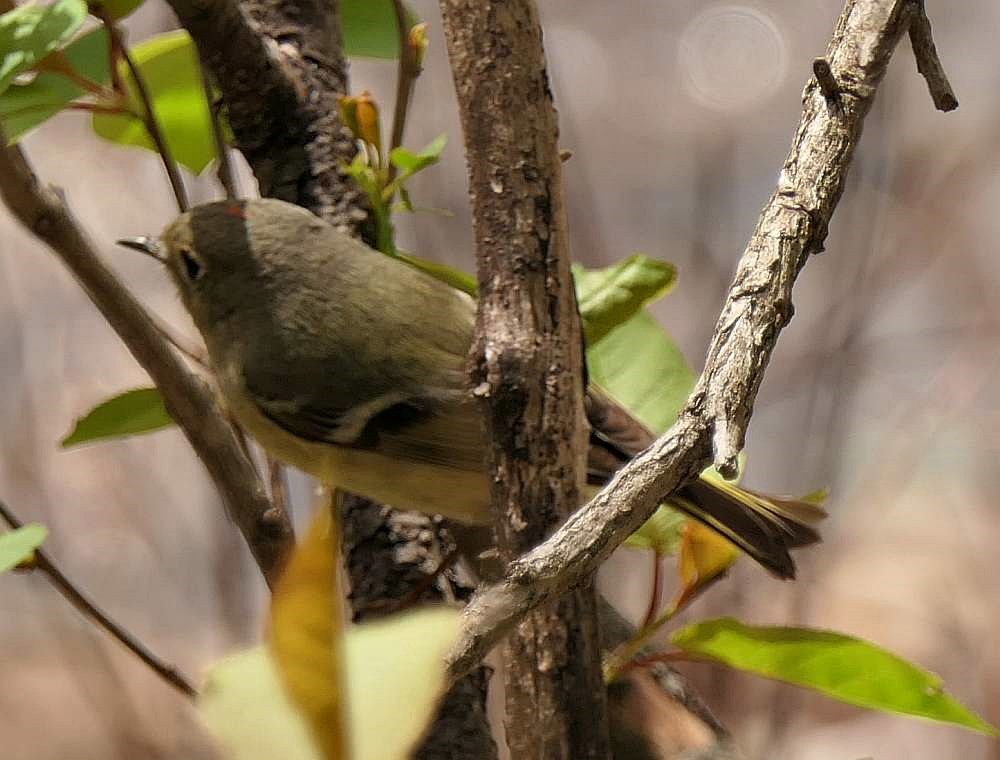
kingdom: Animalia
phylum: Chordata
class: Aves
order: Passeriformes
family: Regulidae
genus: Regulus
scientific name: Regulus calendula
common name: Ruby-crowned kinglet
